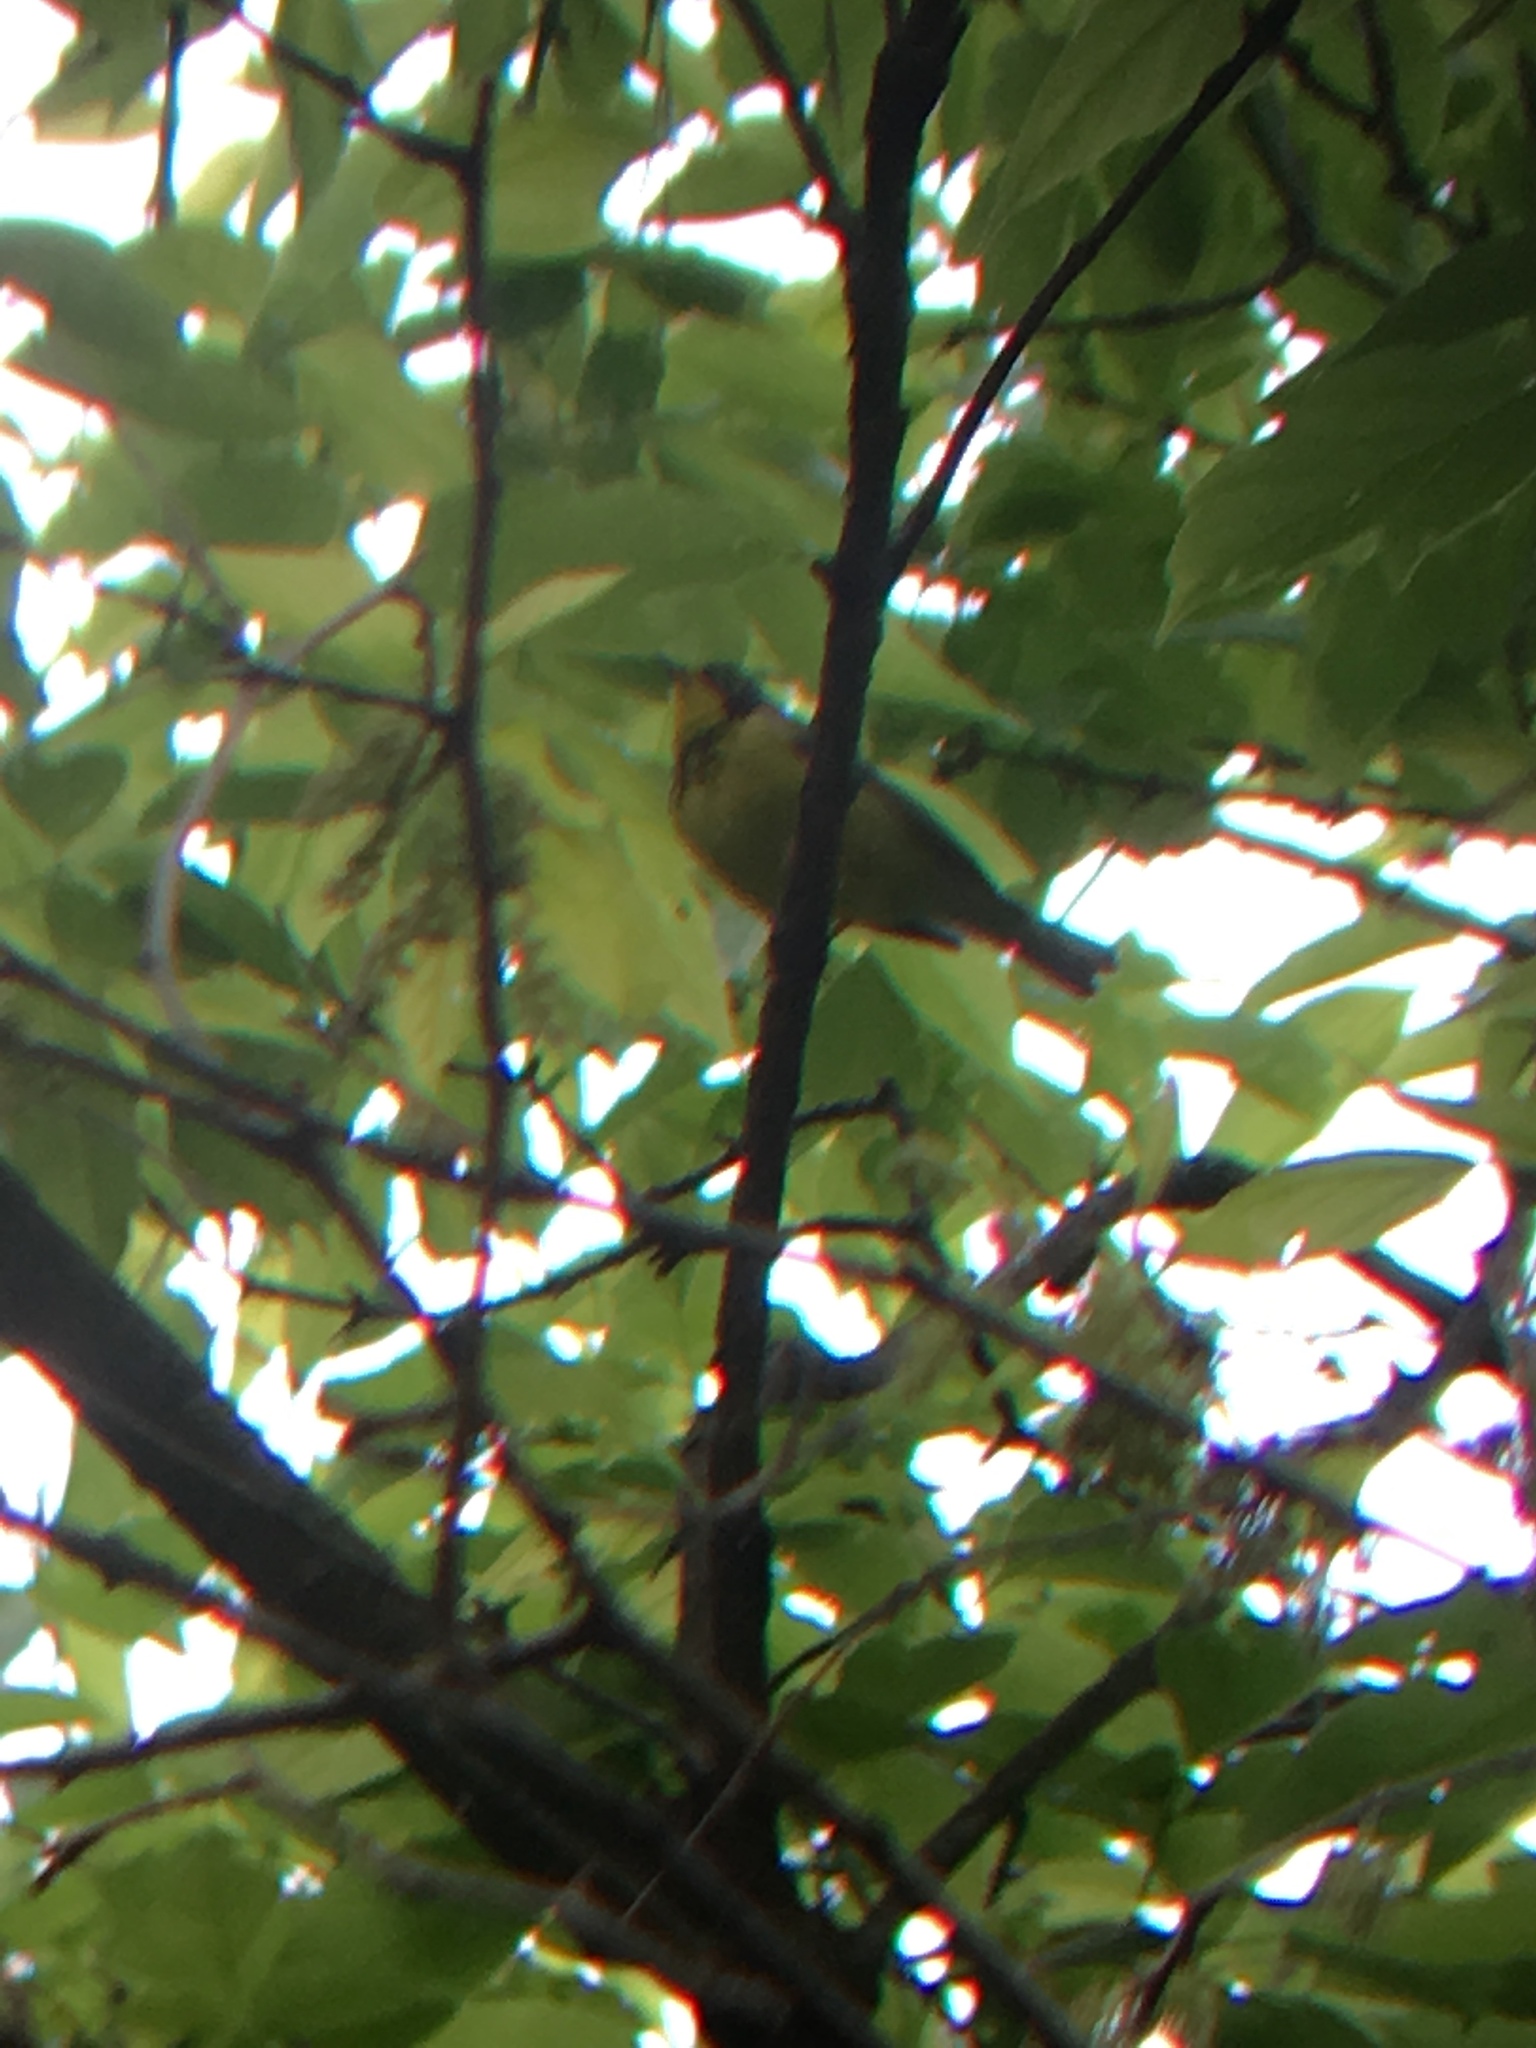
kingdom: Animalia
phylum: Chordata
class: Aves
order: Passeriformes
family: Parulidae
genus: Cardellina
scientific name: Cardellina canadensis
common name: Canada warbler
